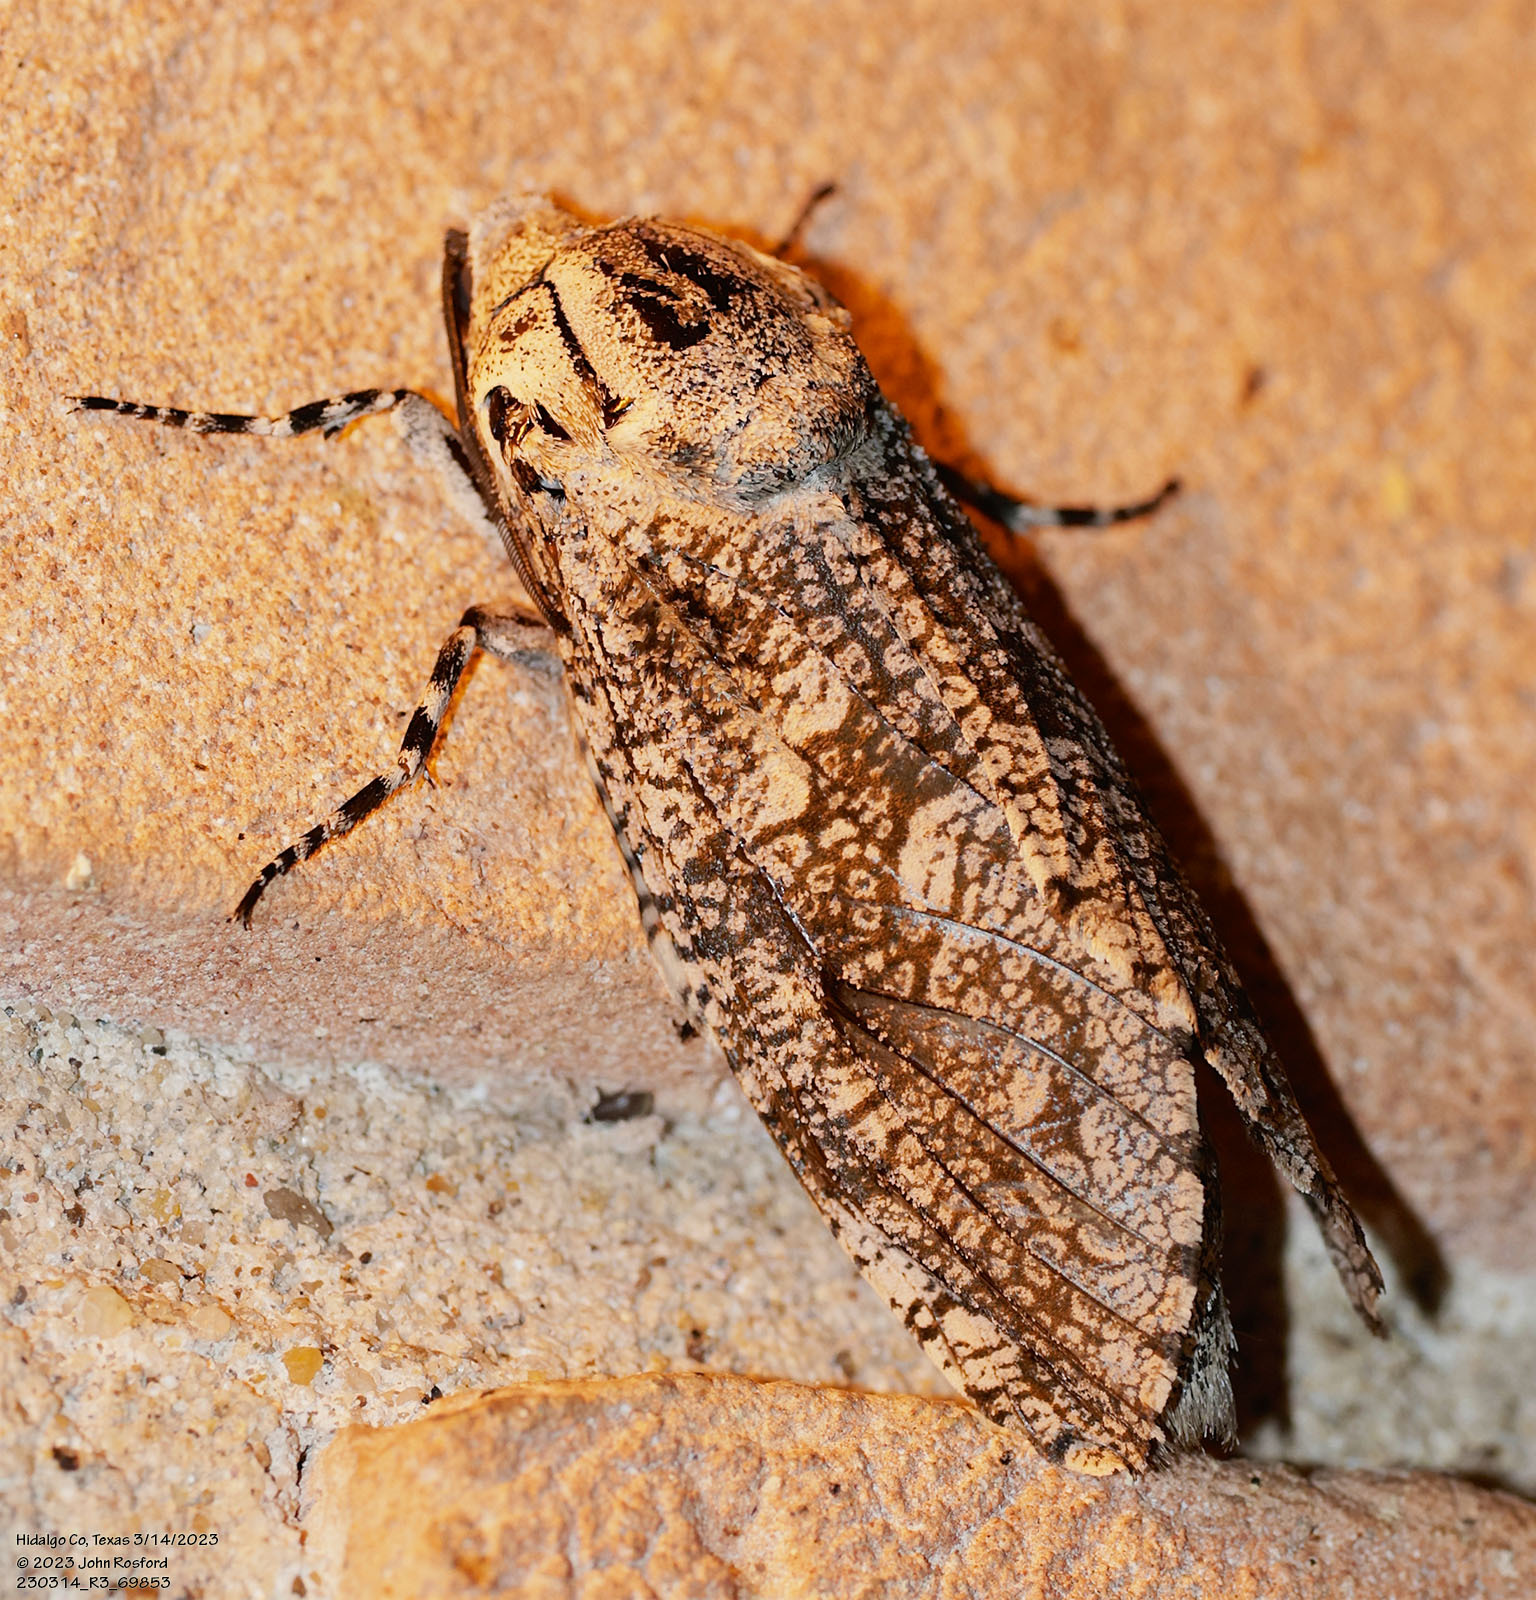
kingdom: Animalia
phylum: Arthropoda
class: Insecta
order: Lepidoptera
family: Cossidae
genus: Prionoxystus
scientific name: Prionoxystus robiniae
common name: Carpenterworm
